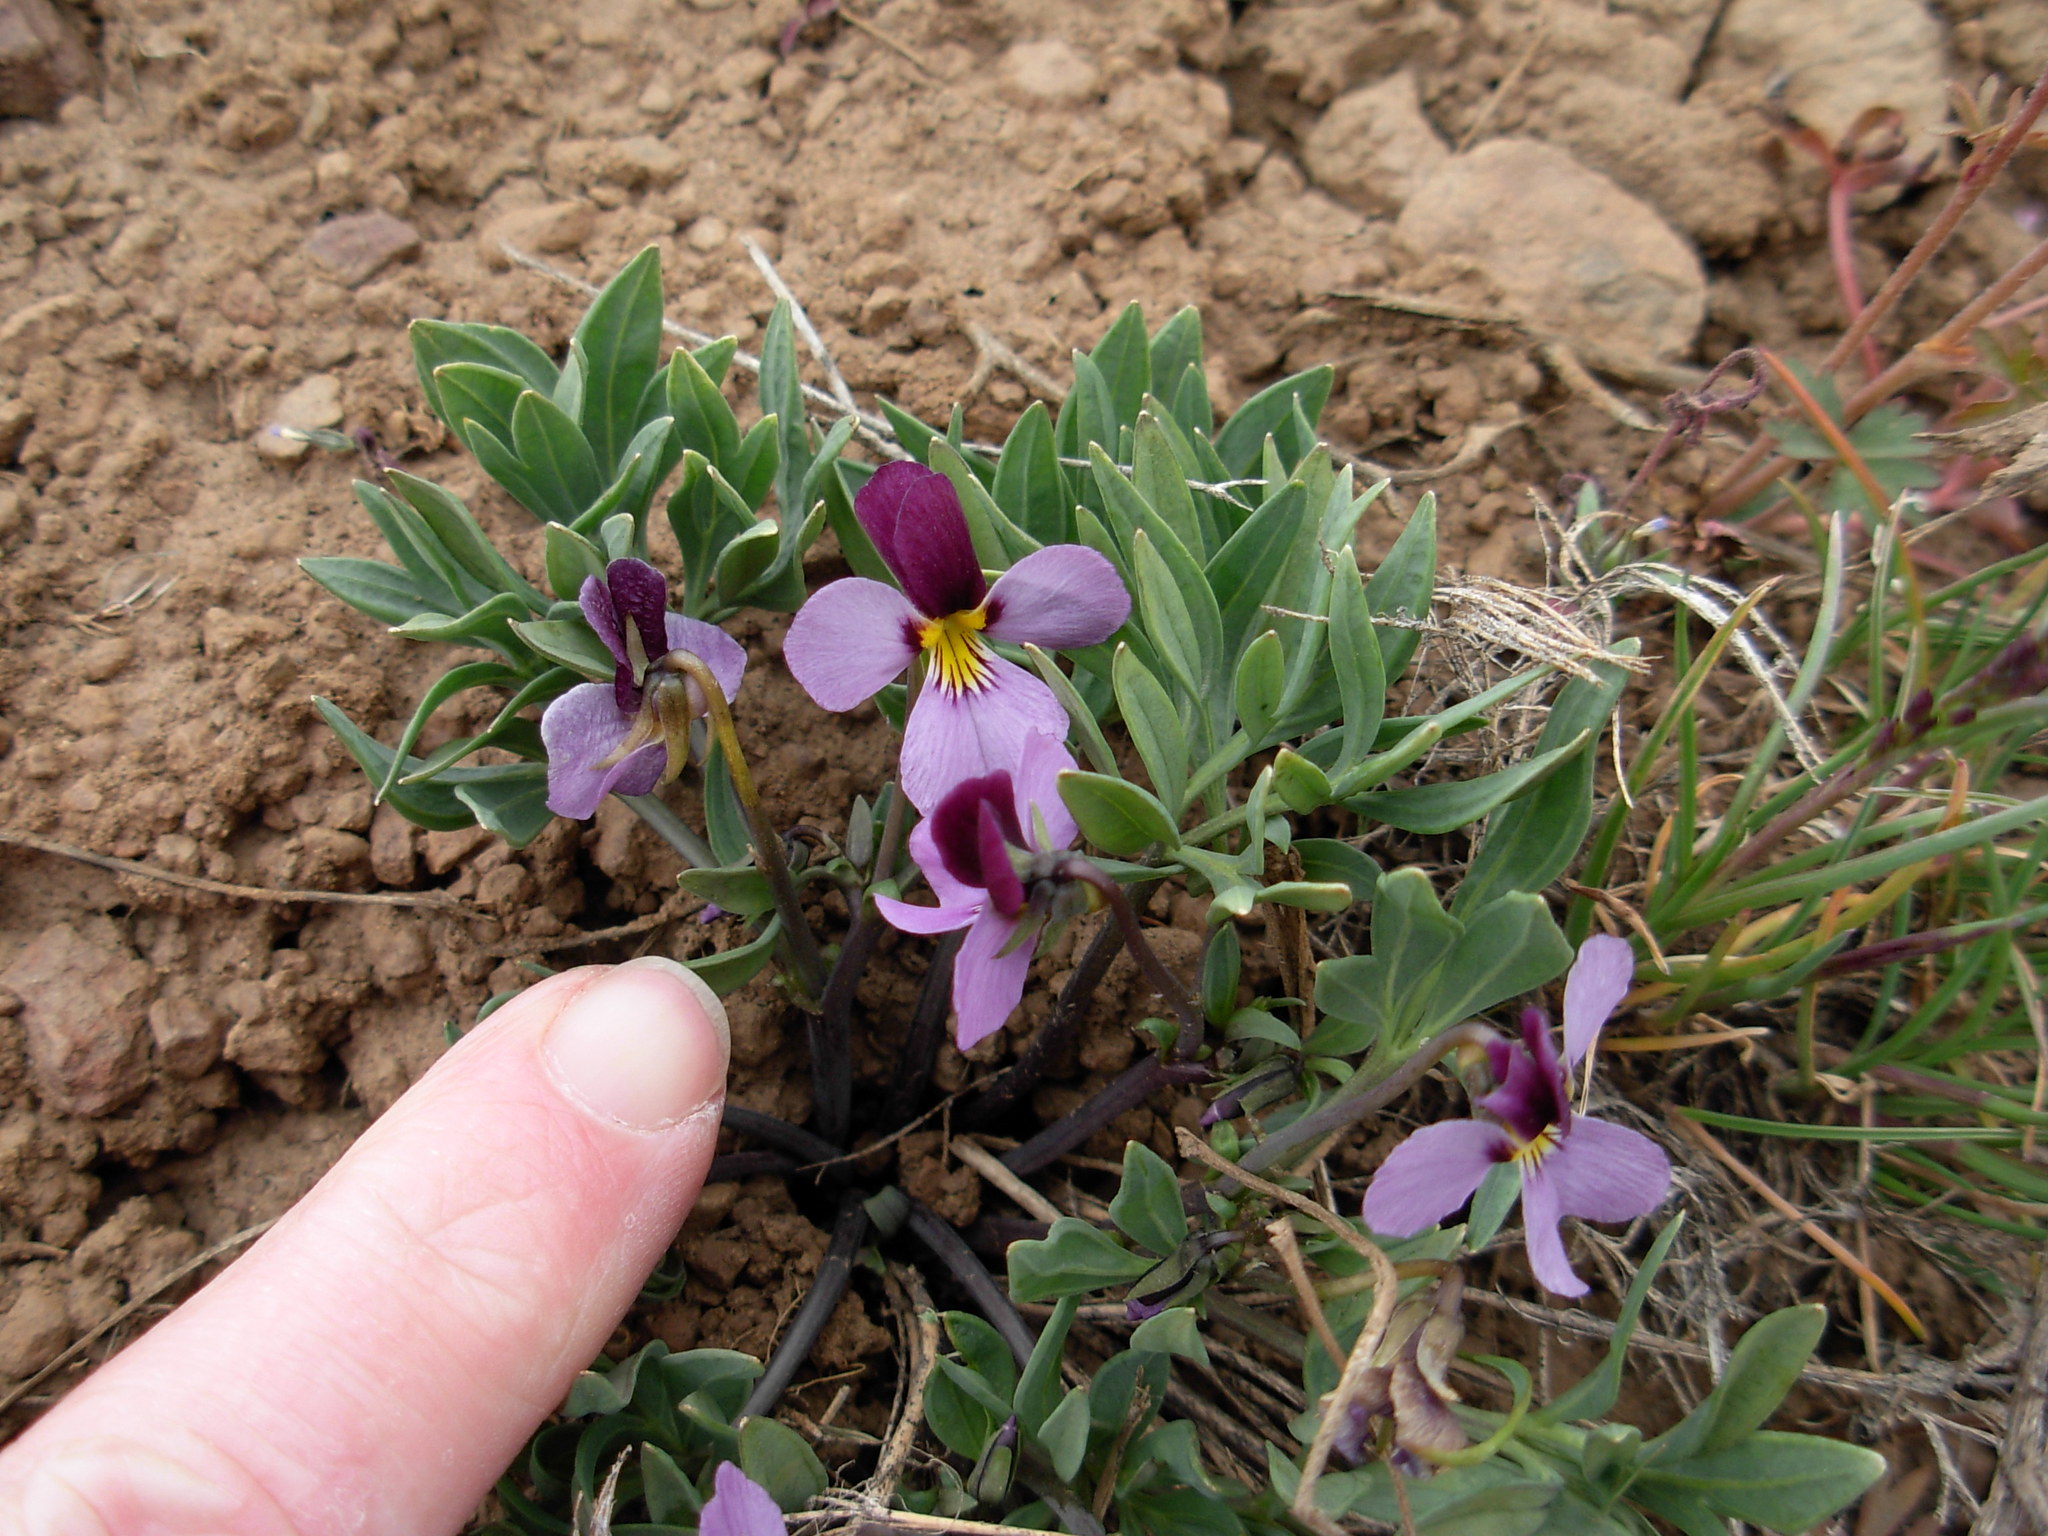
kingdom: Plantae
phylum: Tracheophyta
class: Magnoliopsida
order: Malpighiales
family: Violaceae
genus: Viola
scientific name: Viola trinervata
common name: Sagebrush violet
